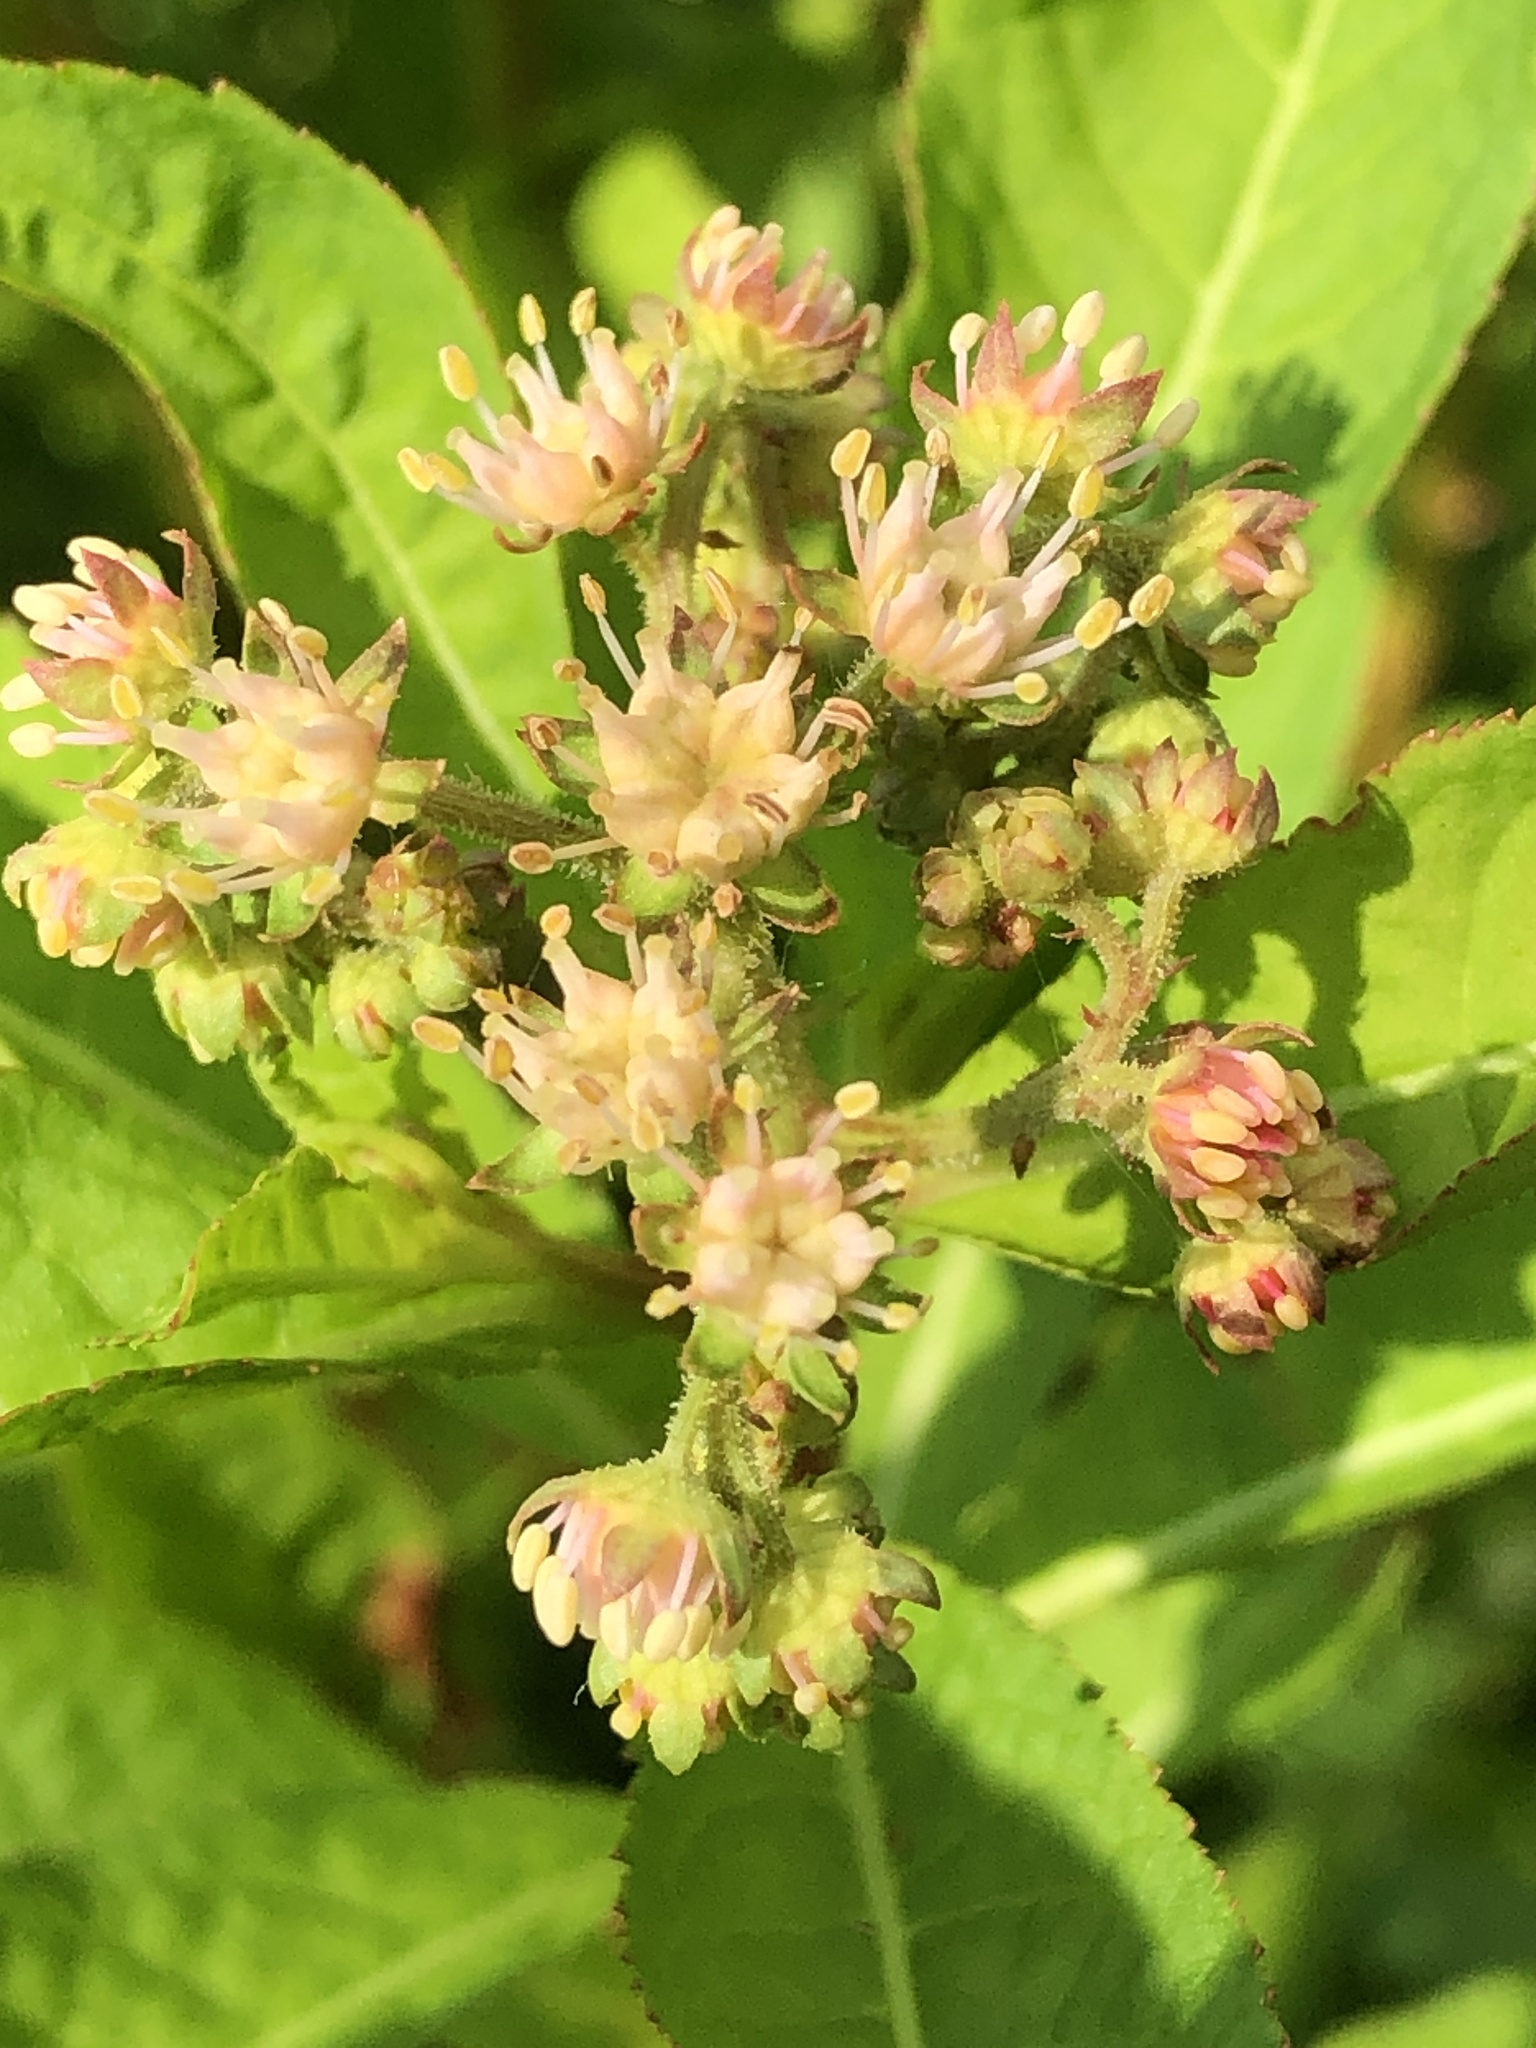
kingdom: Plantae
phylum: Tracheophyta
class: Magnoliopsida
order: Saxifragales
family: Penthoraceae
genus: Penthorum
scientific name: Penthorum sedoides
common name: Ditch stonecrop
